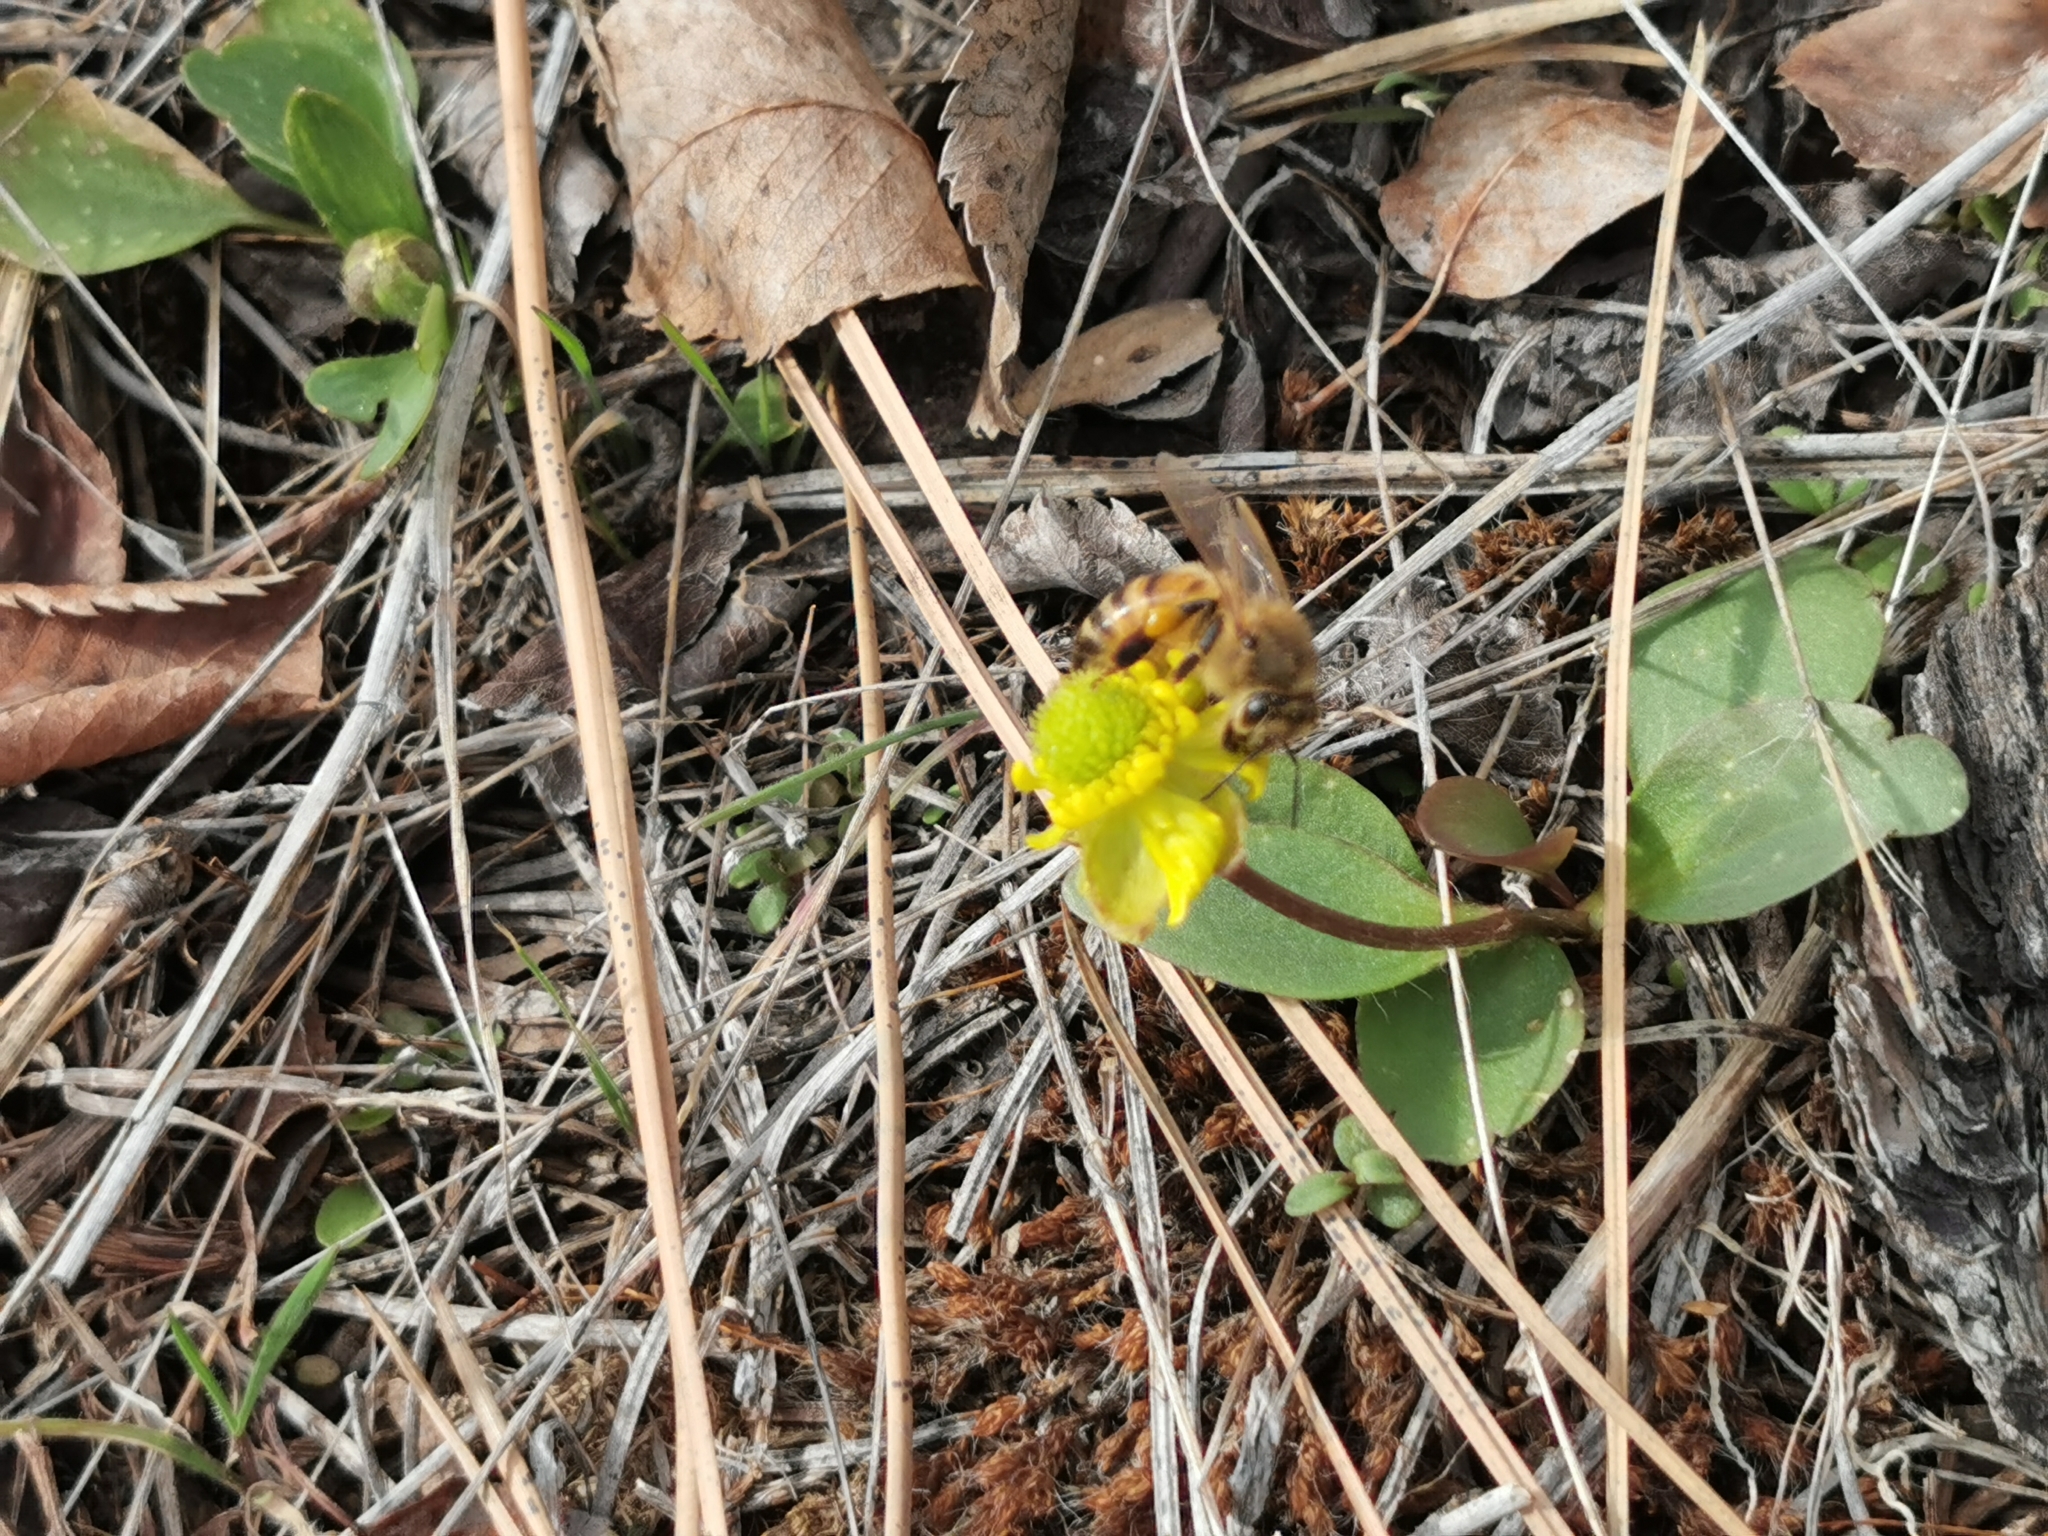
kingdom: Animalia
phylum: Arthropoda
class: Insecta
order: Hymenoptera
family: Apidae
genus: Apis
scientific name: Apis mellifera
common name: Honey bee
